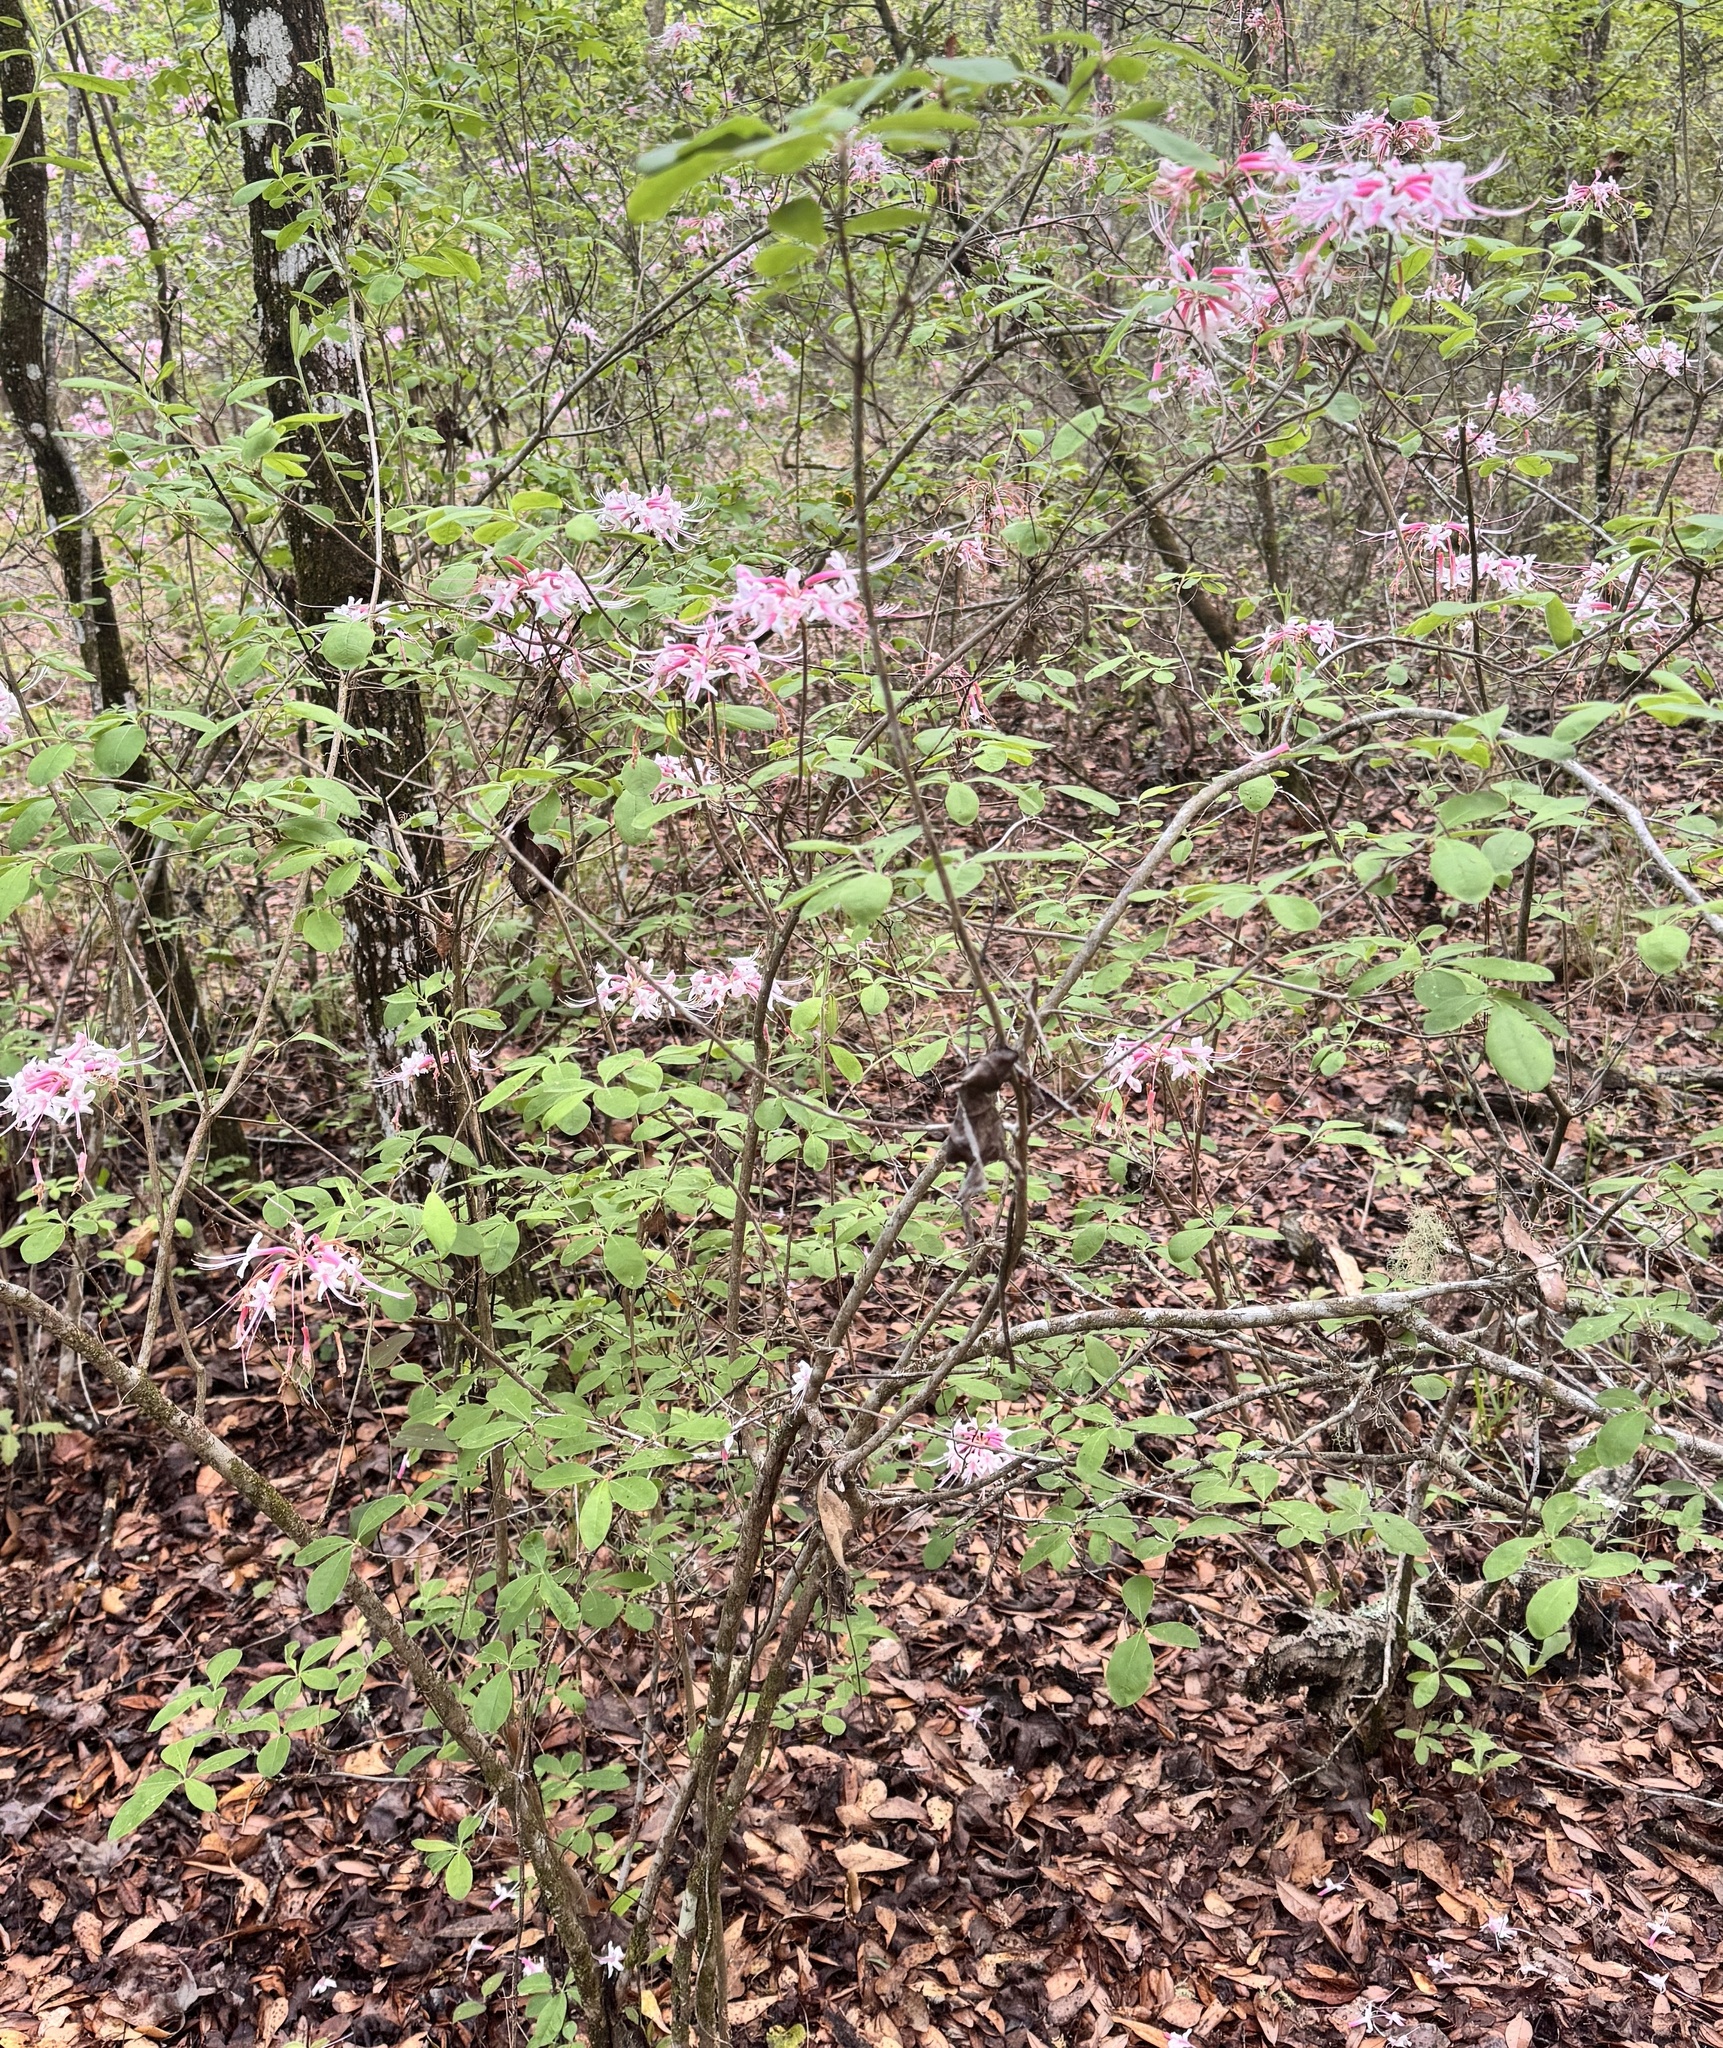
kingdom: Plantae
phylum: Tracheophyta
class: Magnoliopsida
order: Ericales
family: Ericaceae
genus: Rhododendron
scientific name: Rhododendron canescens
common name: Mountain azalea
